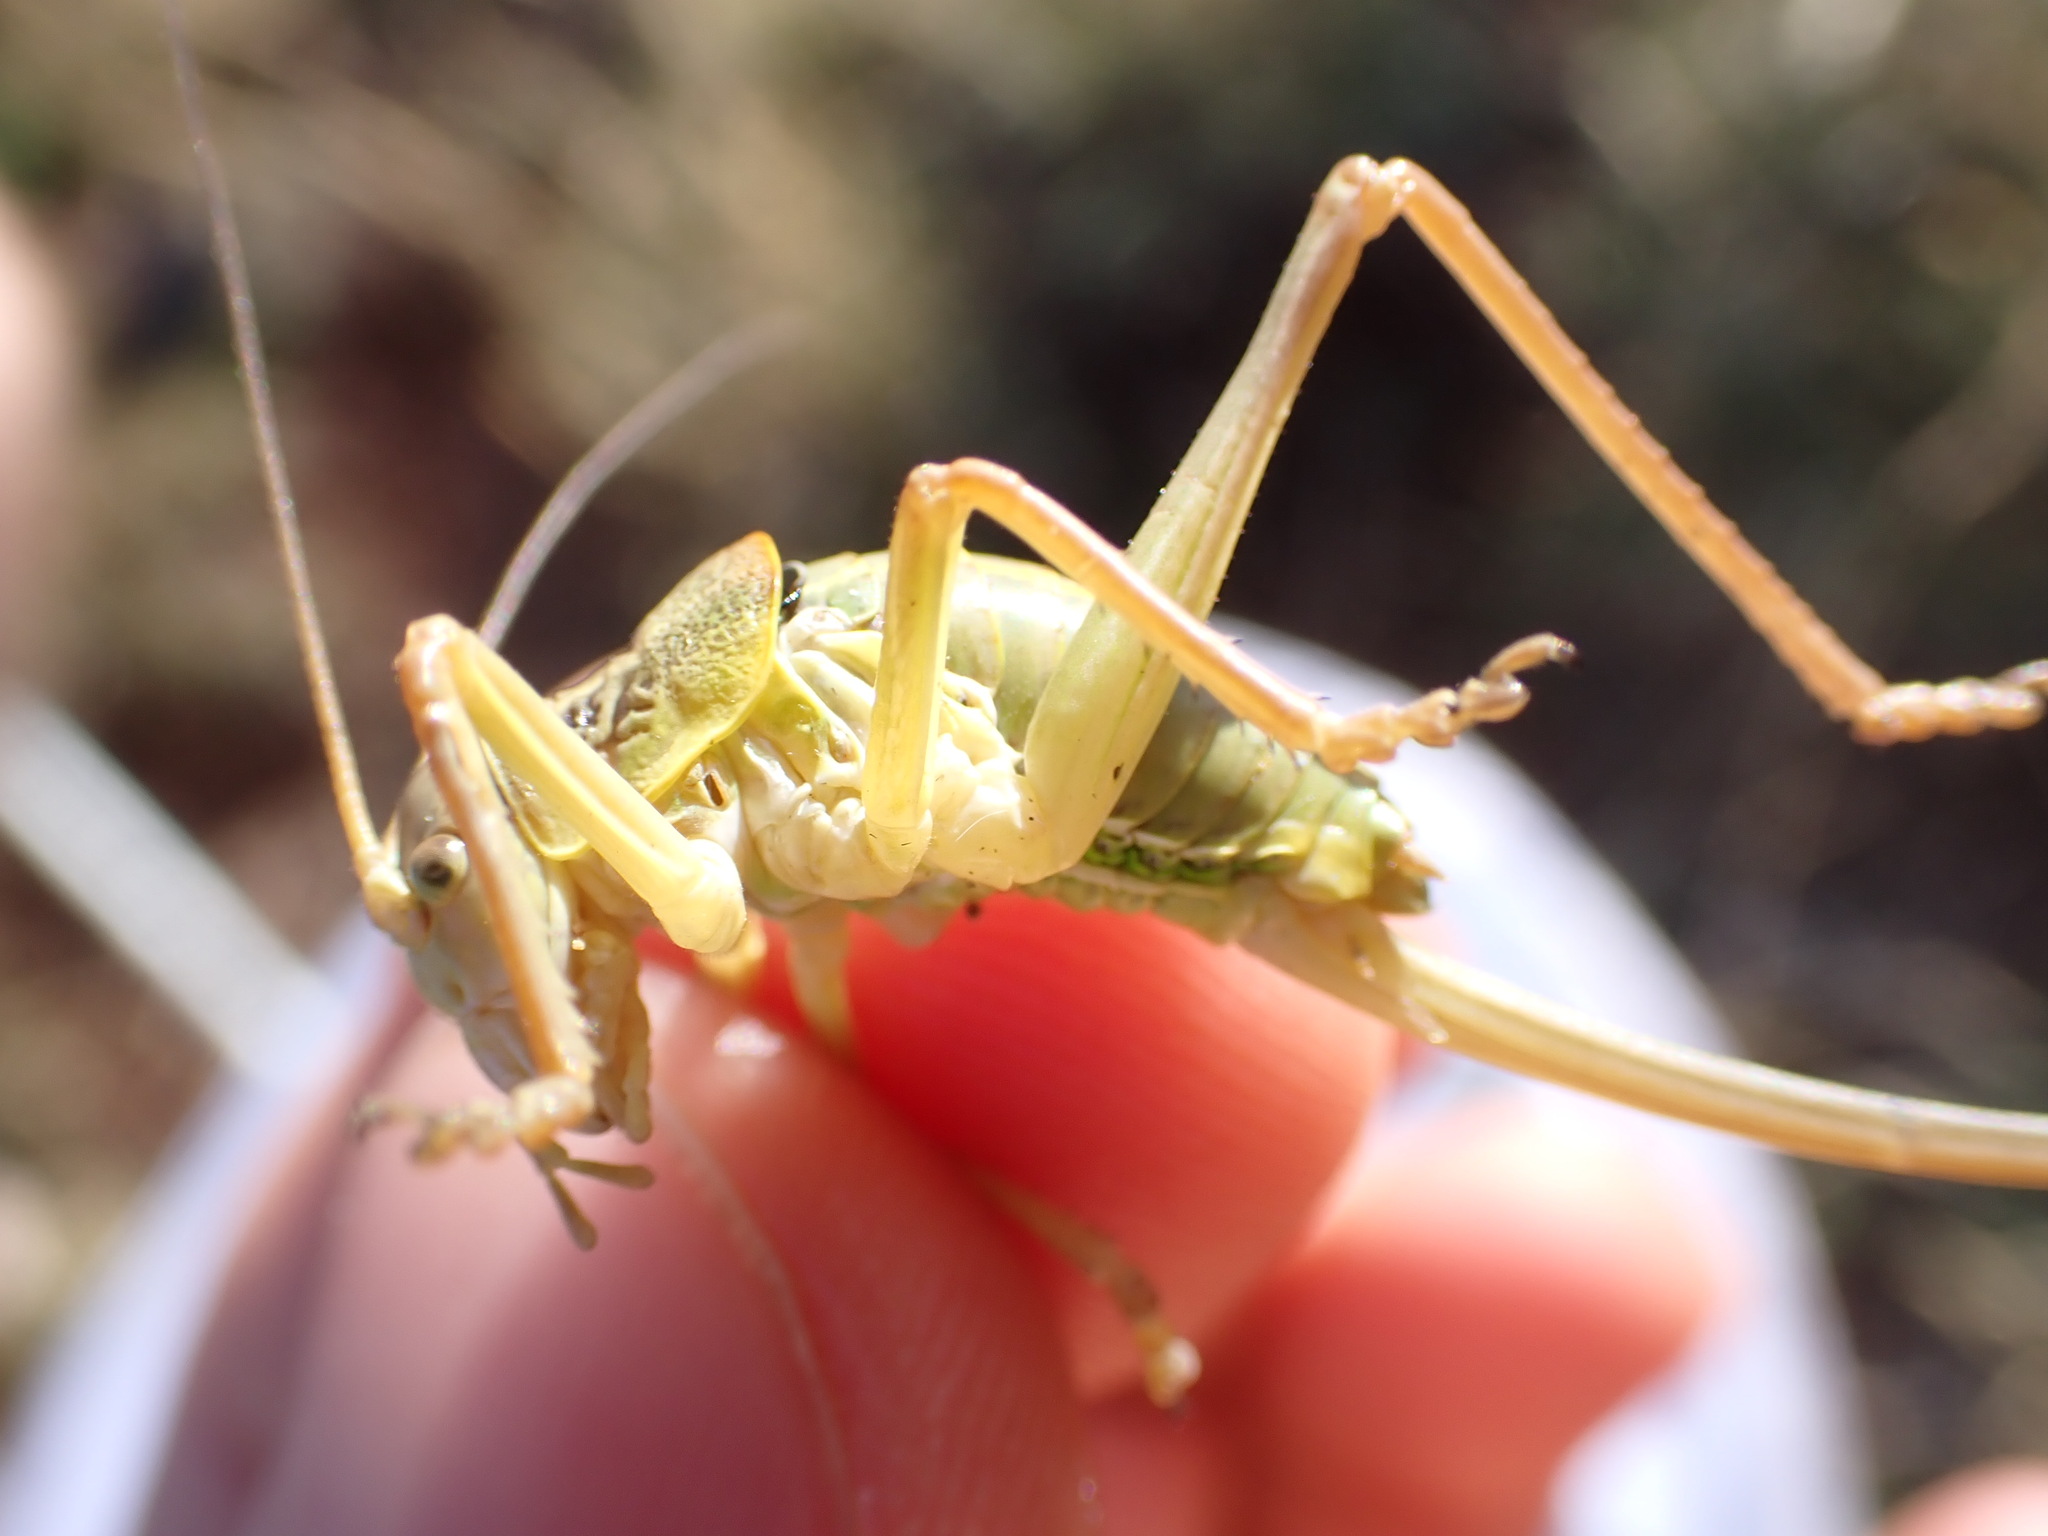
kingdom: Animalia
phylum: Arthropoda
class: Insecta
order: Orthoptera
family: Tettigoniidae
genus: Ephippiger
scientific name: Ephippiger terrestris
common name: Alpine saddle-backed bush-cricket
